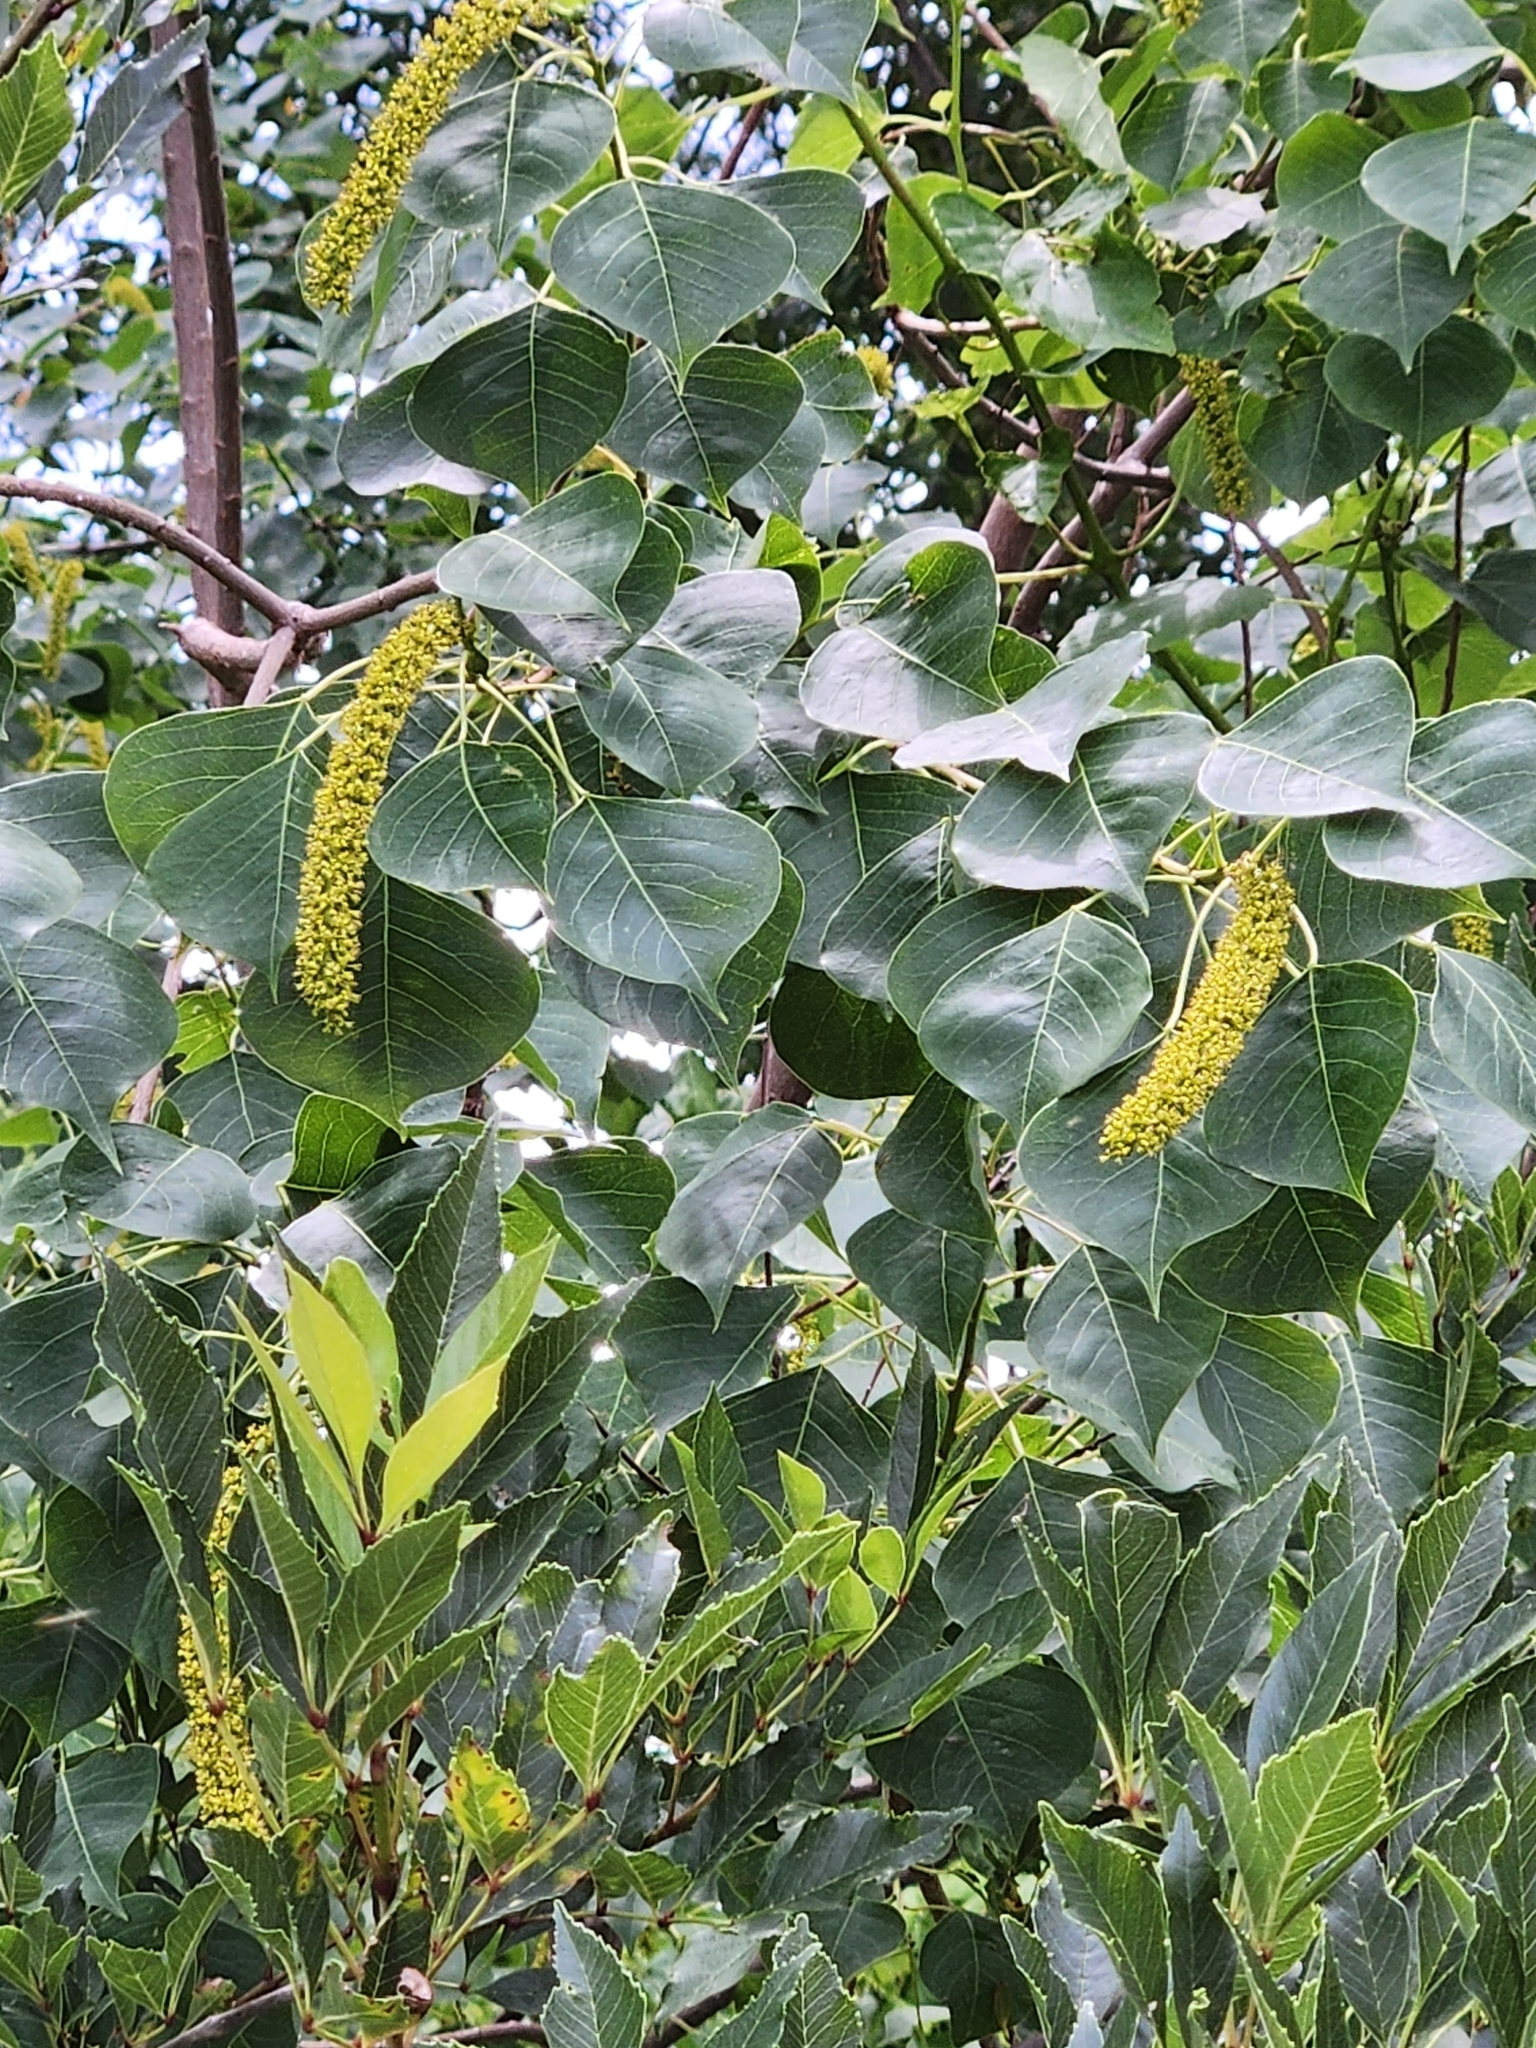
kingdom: Plantae
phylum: Tracheophyta
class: Magnoliopsida
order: Malpighiales
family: Euphorbiaceae
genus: Triadica
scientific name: Triadica sebifera
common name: Chinese tallow
